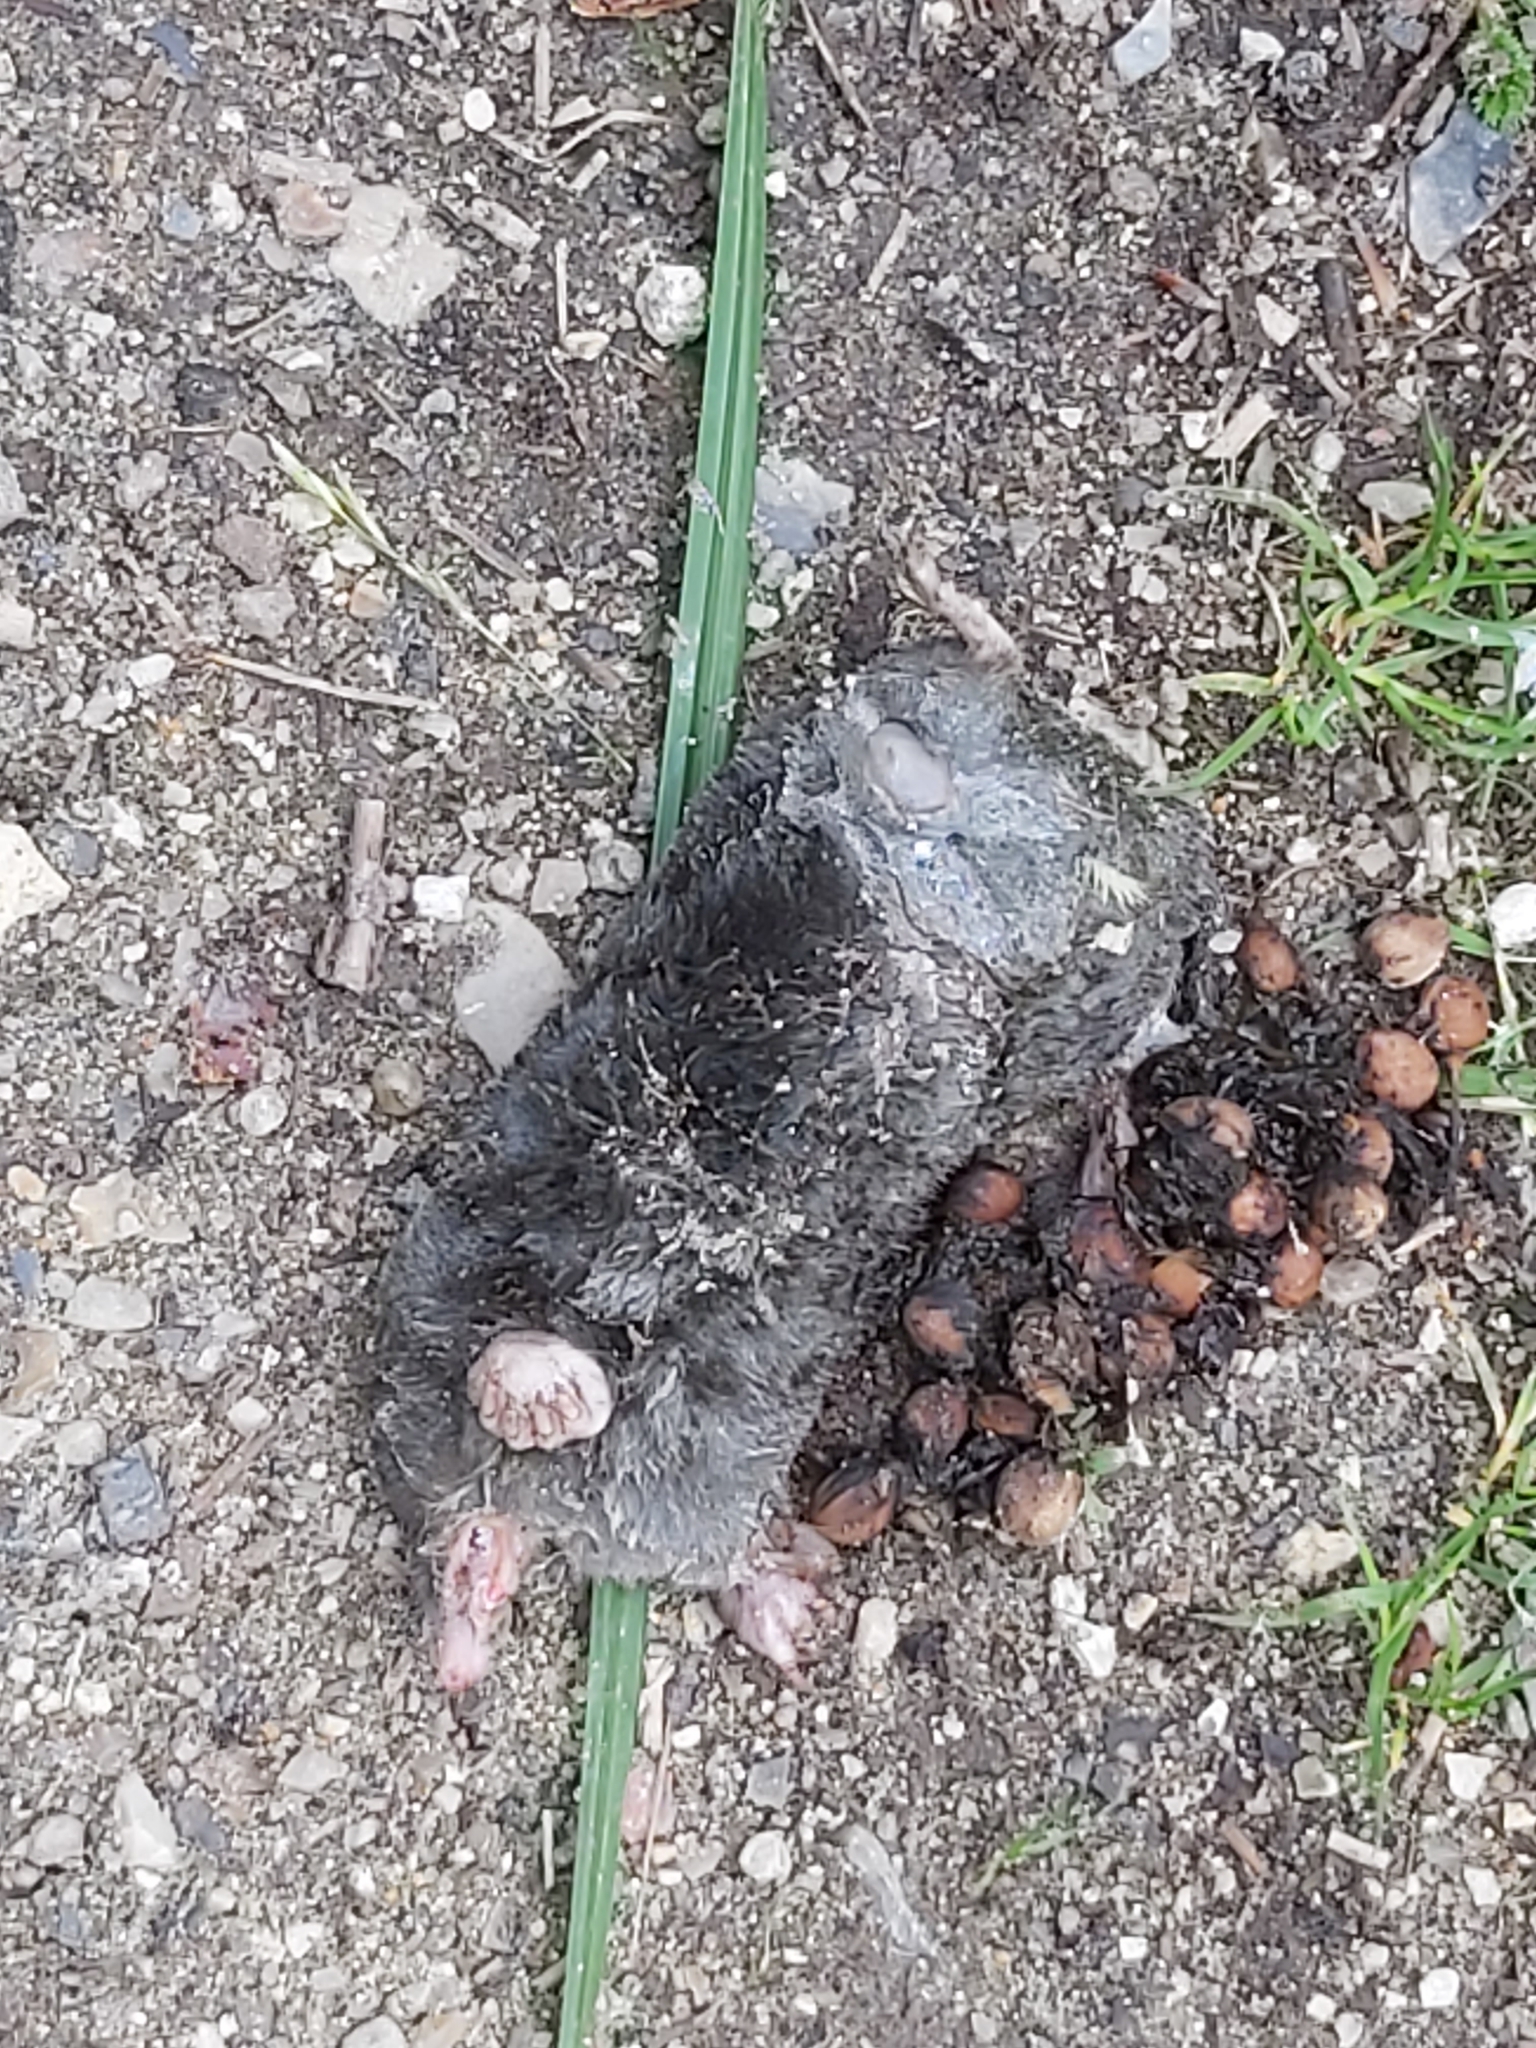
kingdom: Animalia
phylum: Chordata
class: Mammalia
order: Soricomorpha
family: Talpidae
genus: Talpa
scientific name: Talpa europaea
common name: European mole
